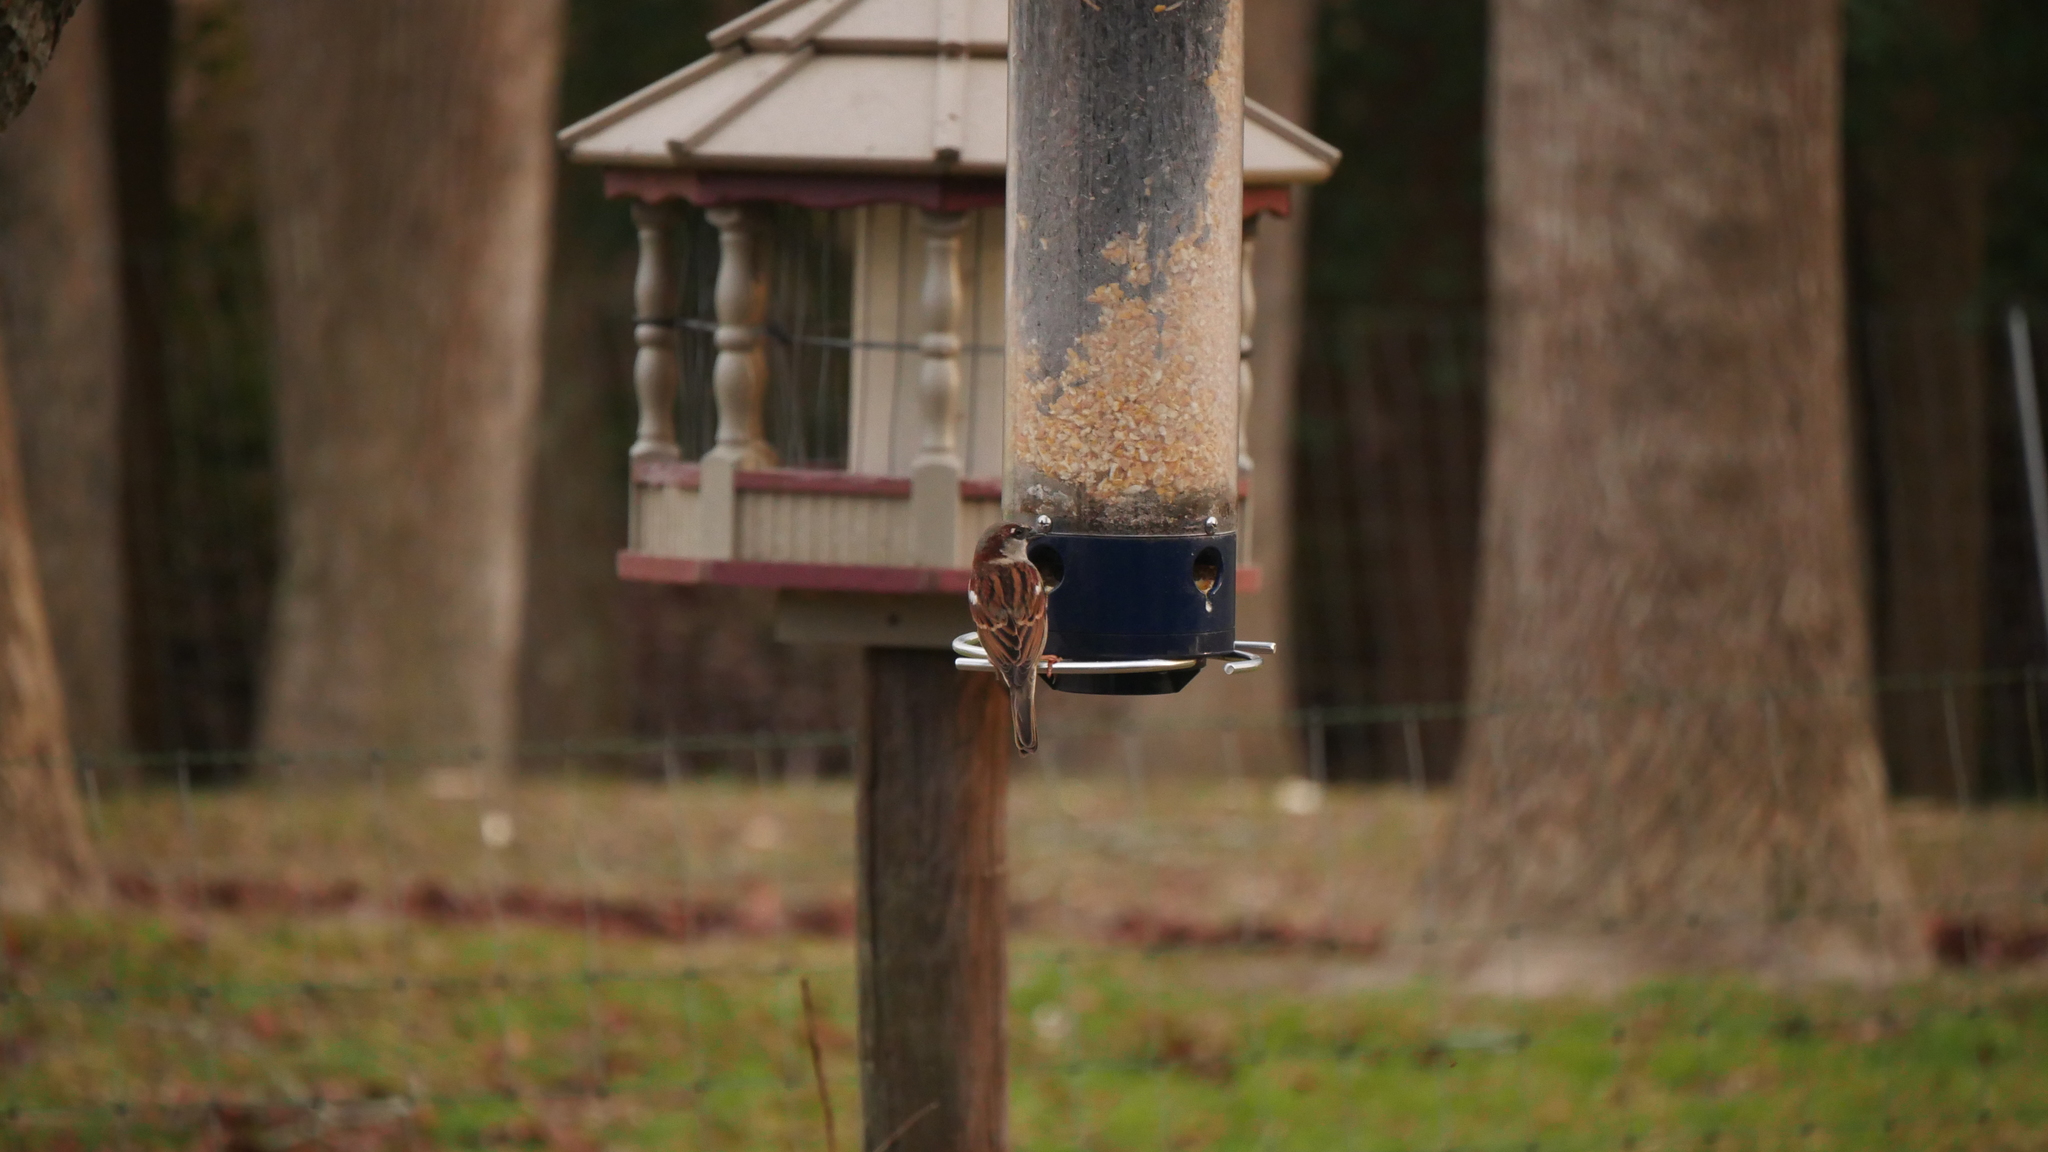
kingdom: Animalia
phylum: Chordata
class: Aves
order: Passeriformes
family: Passeridae
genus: Passer
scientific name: Passer domesticus
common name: House sparrow
